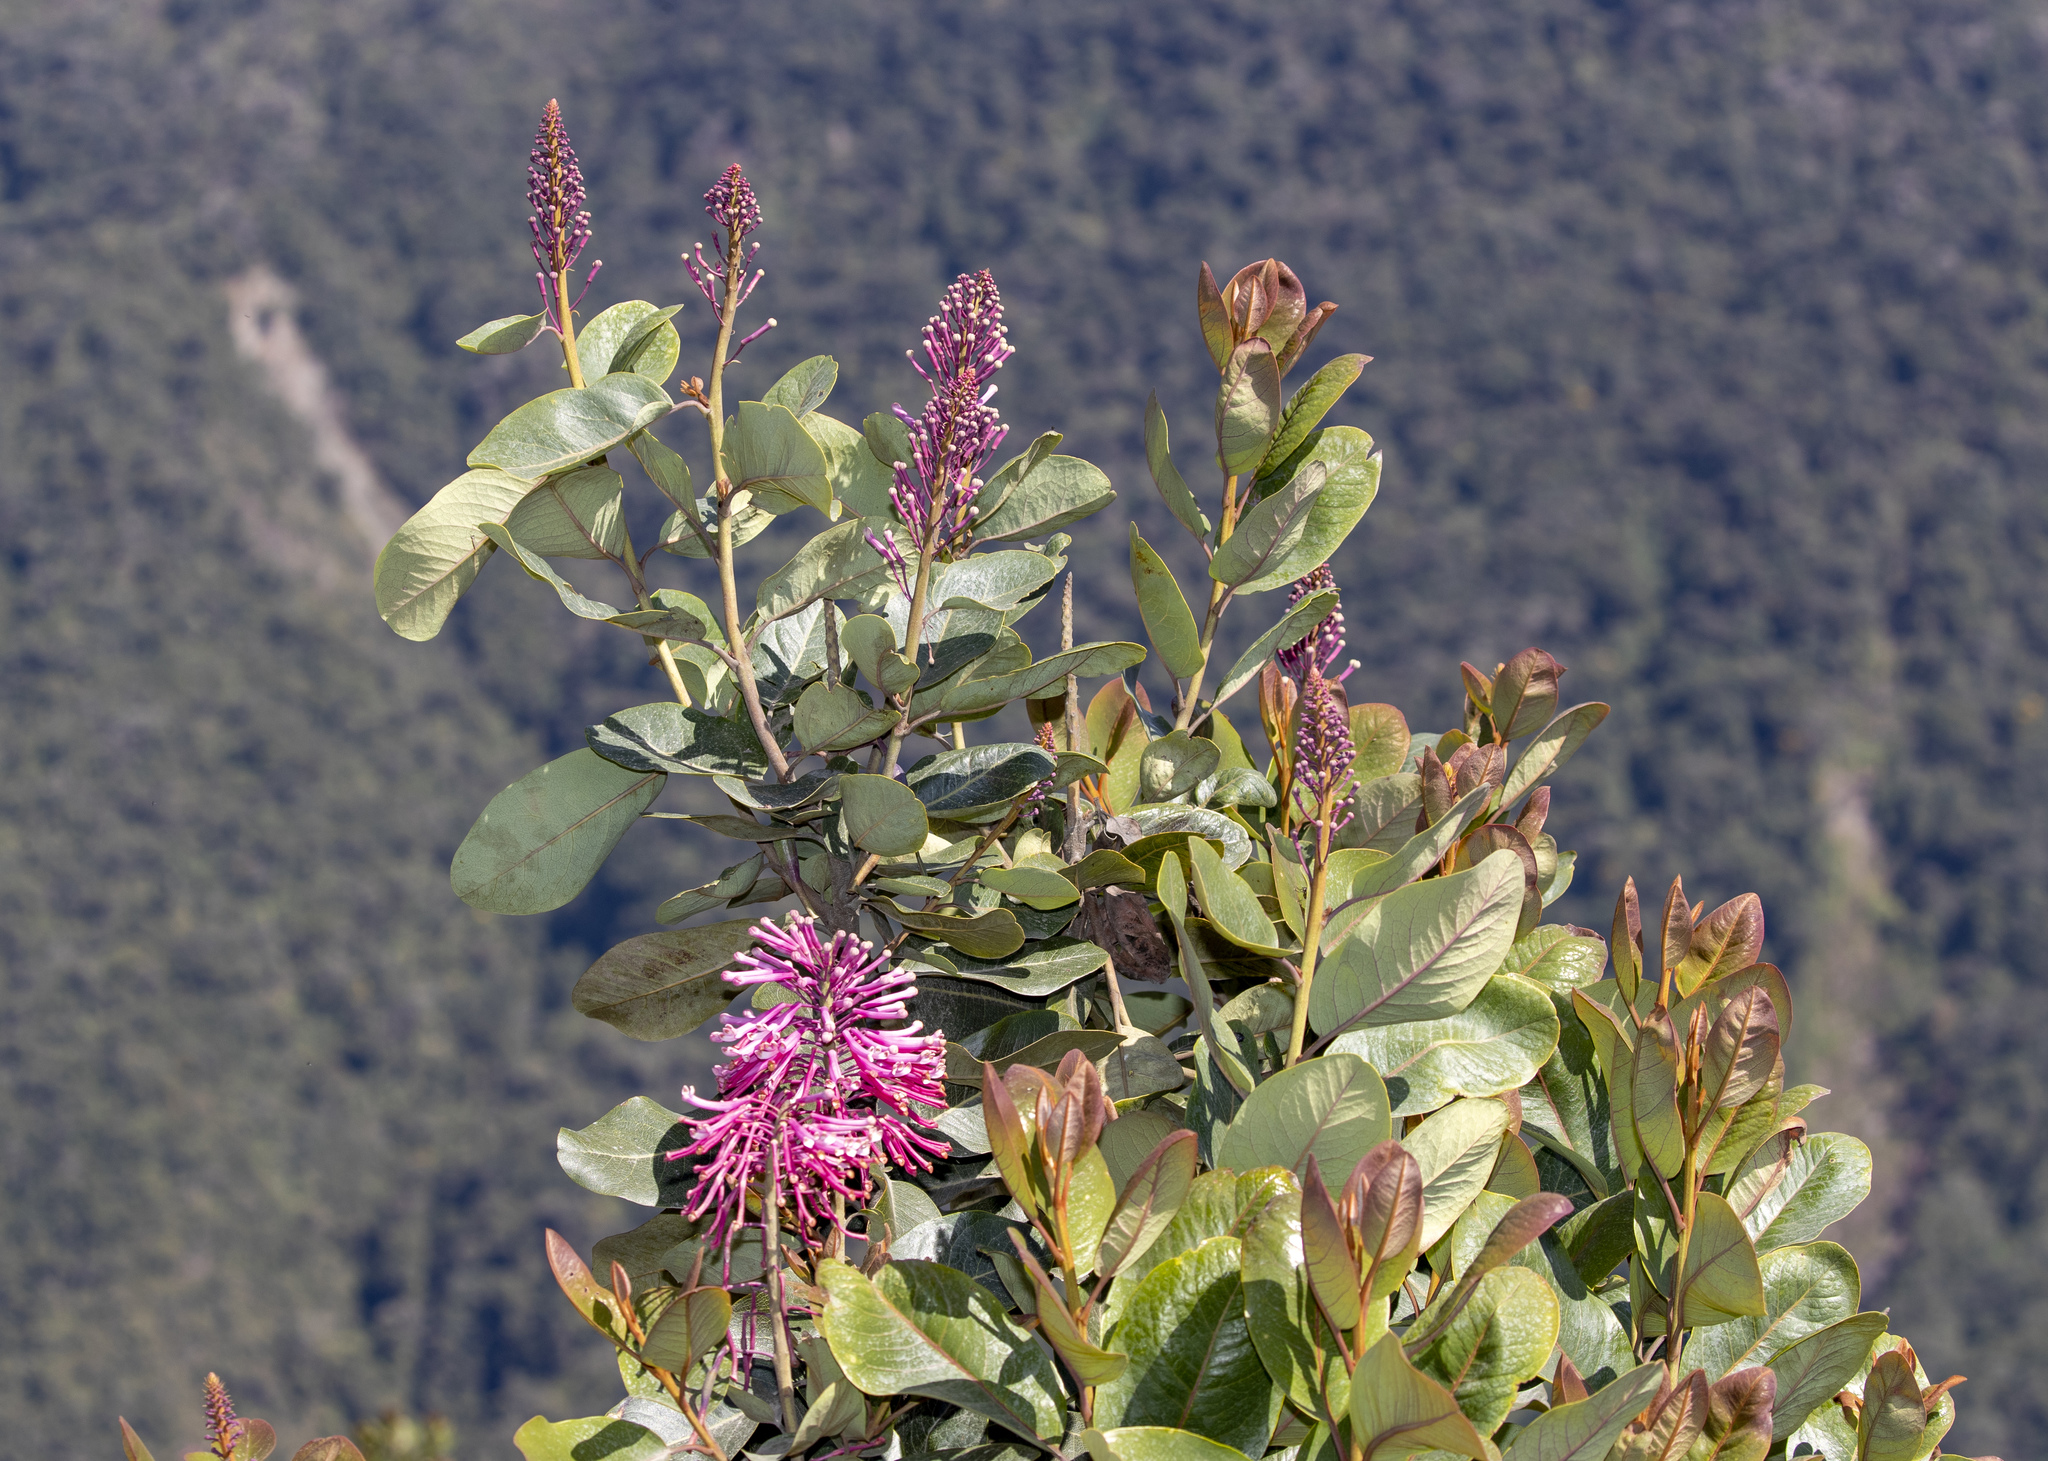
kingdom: Plantae
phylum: Tracheophyta
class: Magnoliopsida
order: Proteales
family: Proteaceae
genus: Oreocallis
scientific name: Oreocallis grandiflora
